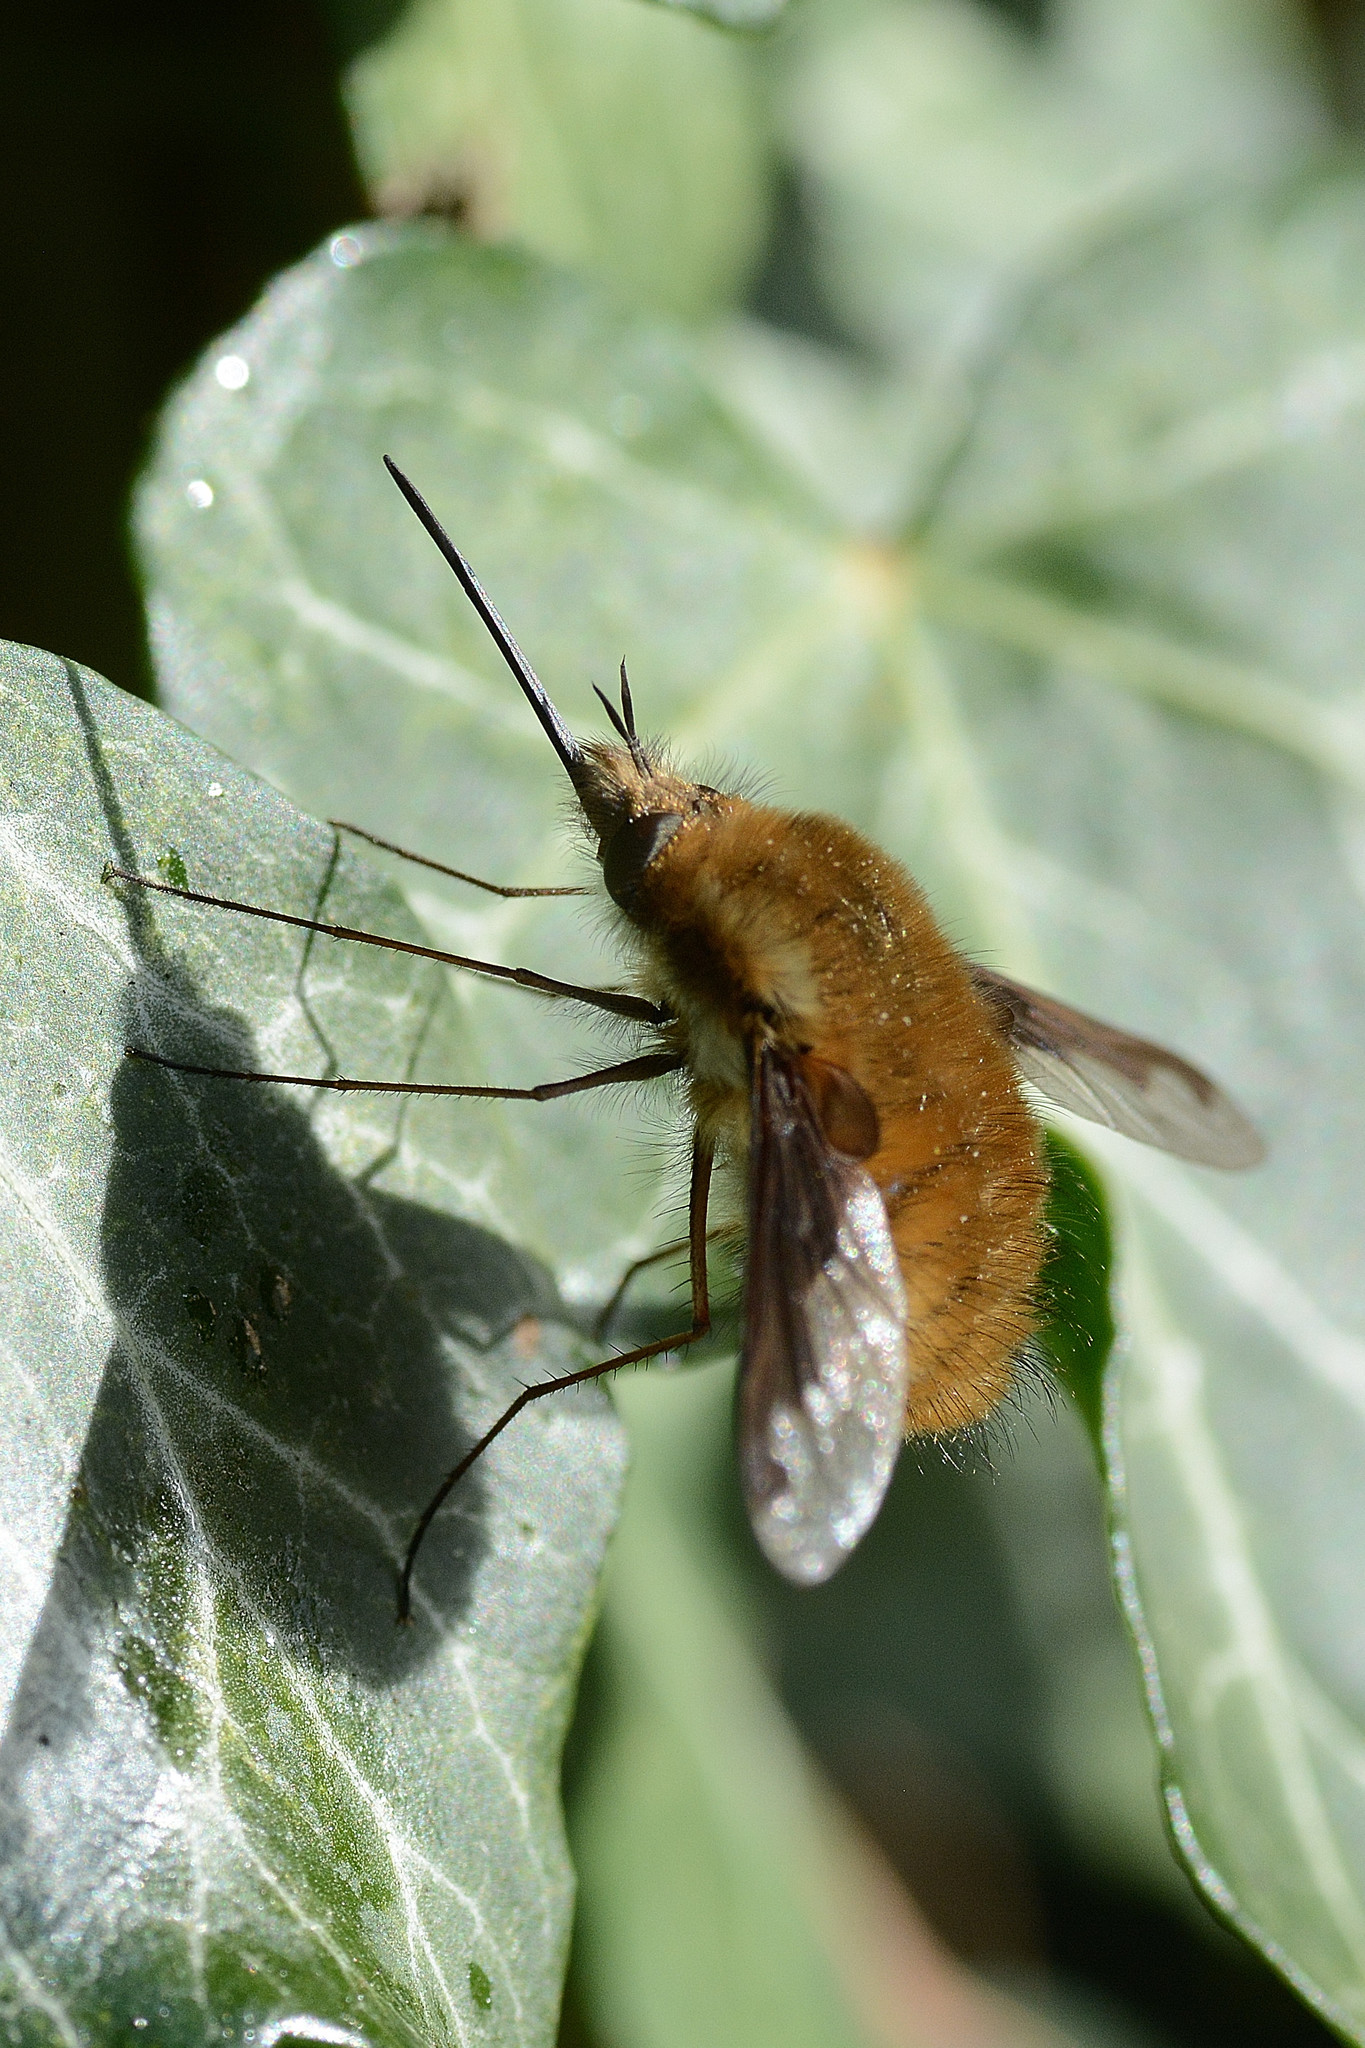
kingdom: Animalia
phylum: Arthropoda
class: Insecta
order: Diptera
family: Bombyliidae
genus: Bombylius
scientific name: Bombylius major
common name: Bee fly
